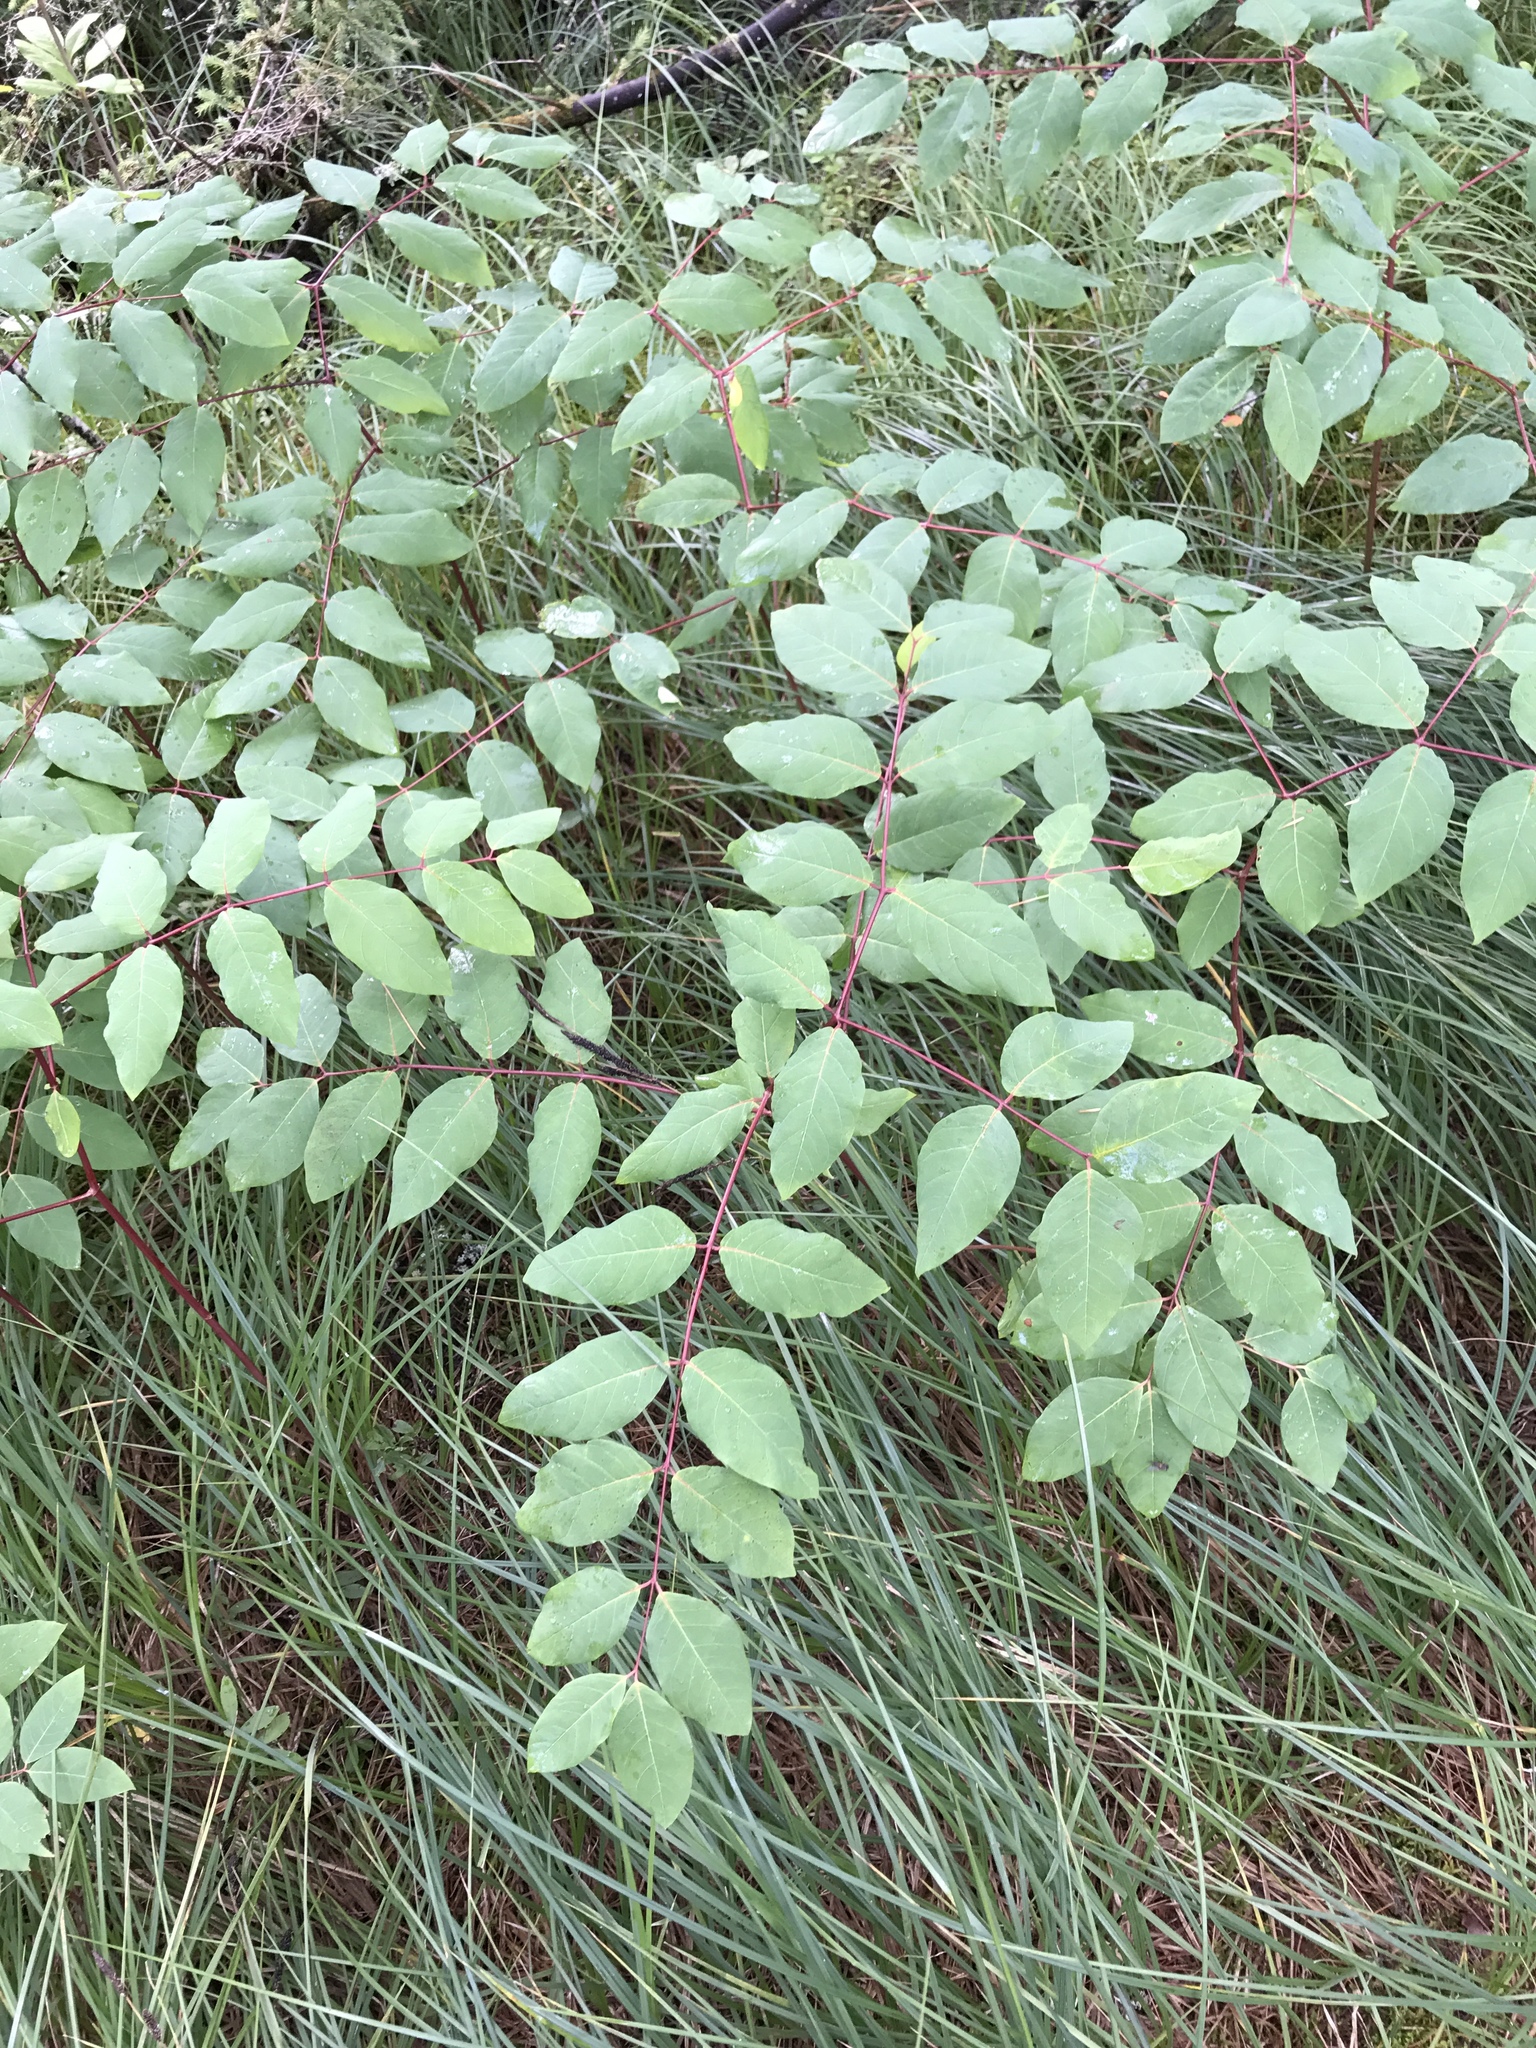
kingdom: Plantae
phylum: Tracheophyta
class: Magnoliopsida
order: Gentianales
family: Apocynaceae
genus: Apocynum
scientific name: Apocynum androsaemifolium
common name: Spreading dogbane
